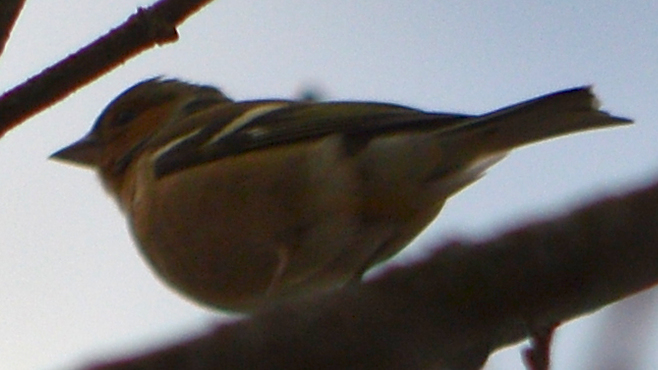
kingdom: Animalia
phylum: Chordata
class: Aves
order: Passeriformes
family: Fringillidae
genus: Fringilla
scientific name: Fringilla coelebs
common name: Common chaffinch
